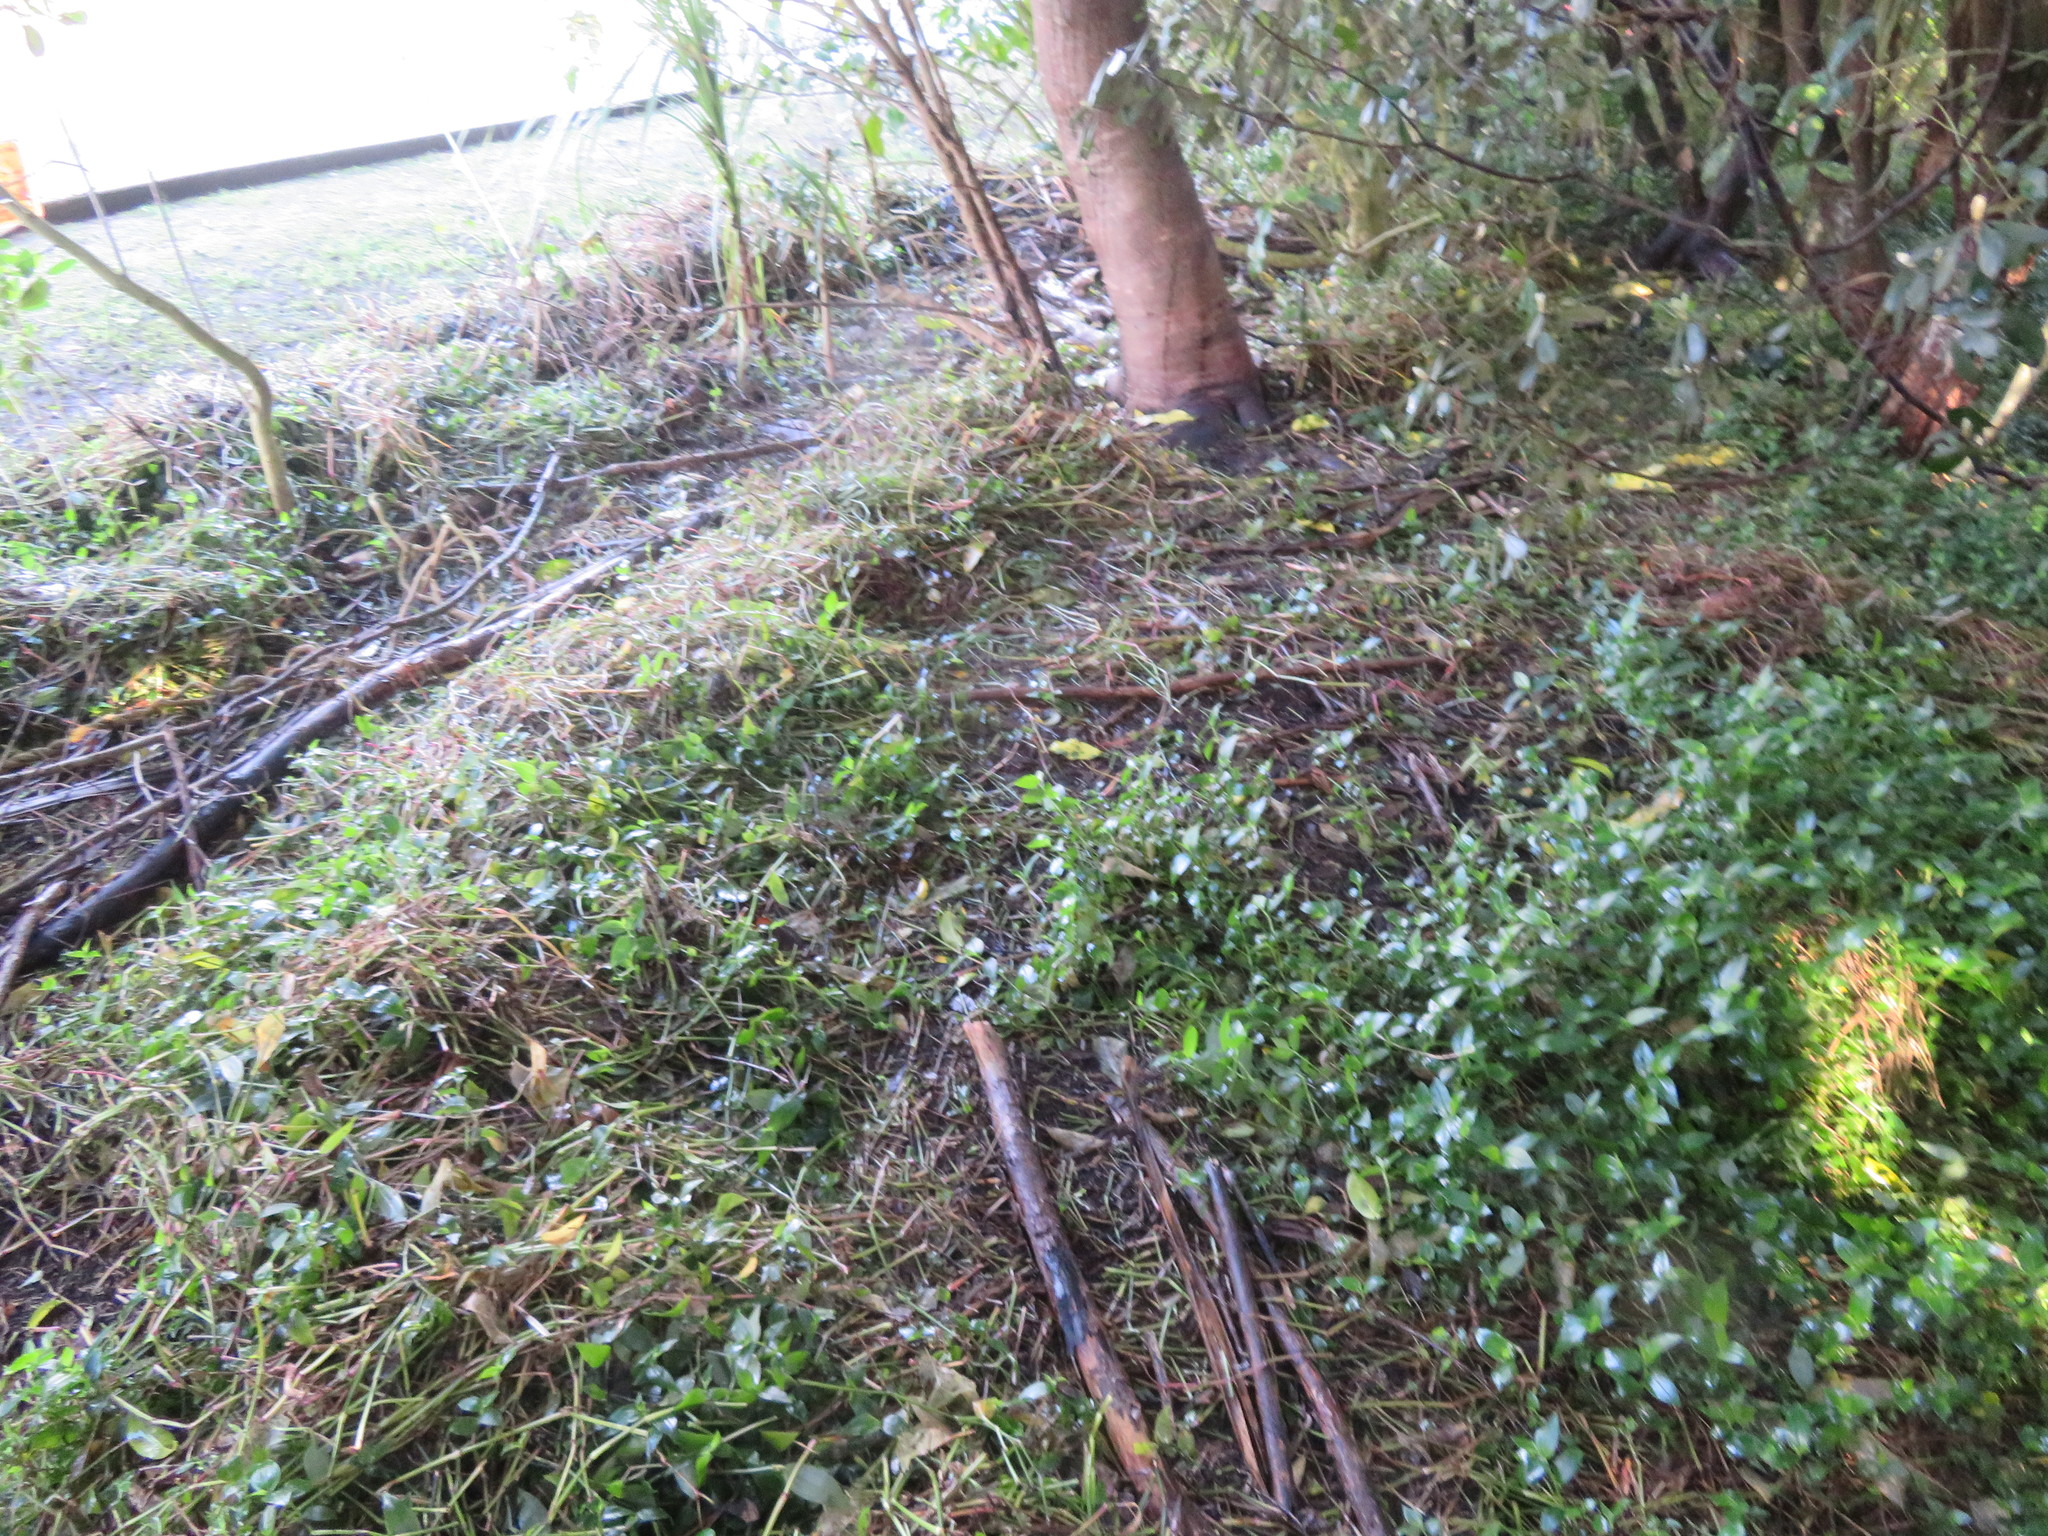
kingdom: Plantae
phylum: Tracheophyta
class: Liliopsida
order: Commelinales
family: Commelinaceae
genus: Tradescantia
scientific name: Tradescantia fluminensis
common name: Wandering-jew
